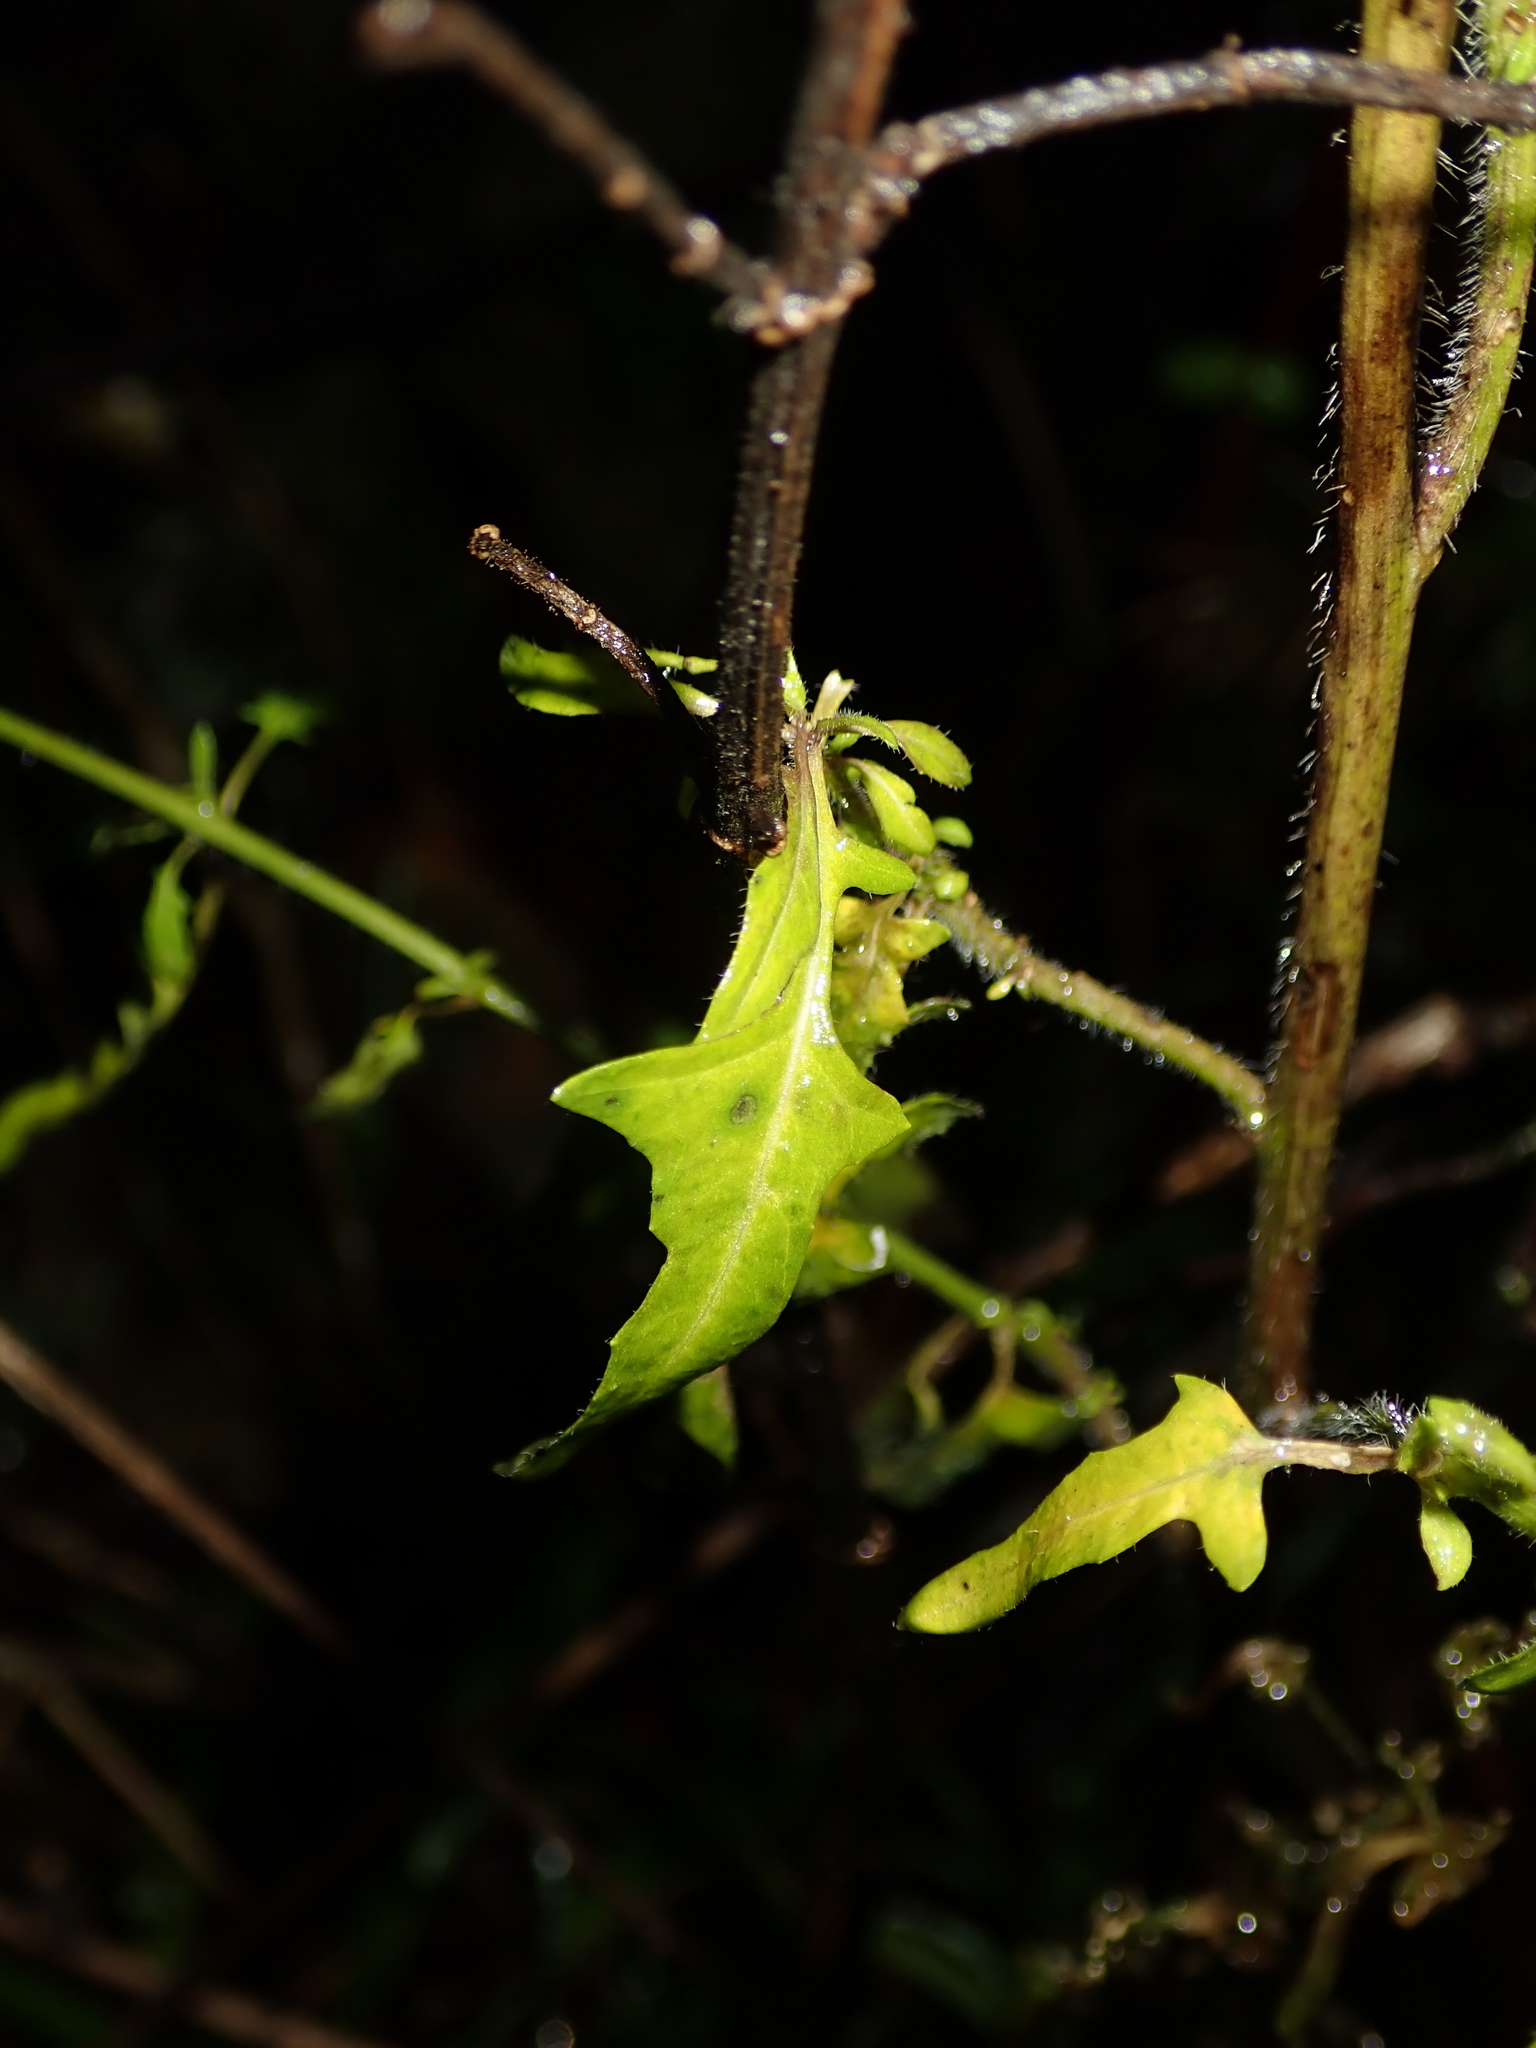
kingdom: Plantae
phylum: Tracheophyta
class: Magnoliopsida
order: Brassicales
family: Brassicaceae
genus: Sisymbrium
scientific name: Sisymbrium loeselii
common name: False london-rocket
